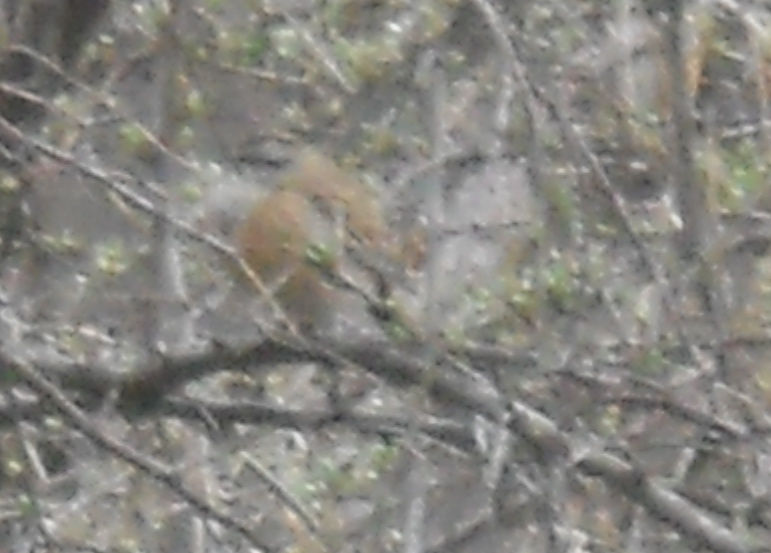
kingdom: Animalia
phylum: Chordata
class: Aves
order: Passeriformes
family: Emberizidae
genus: Emberiza
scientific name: Emberiza cia
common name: Rock bunting
